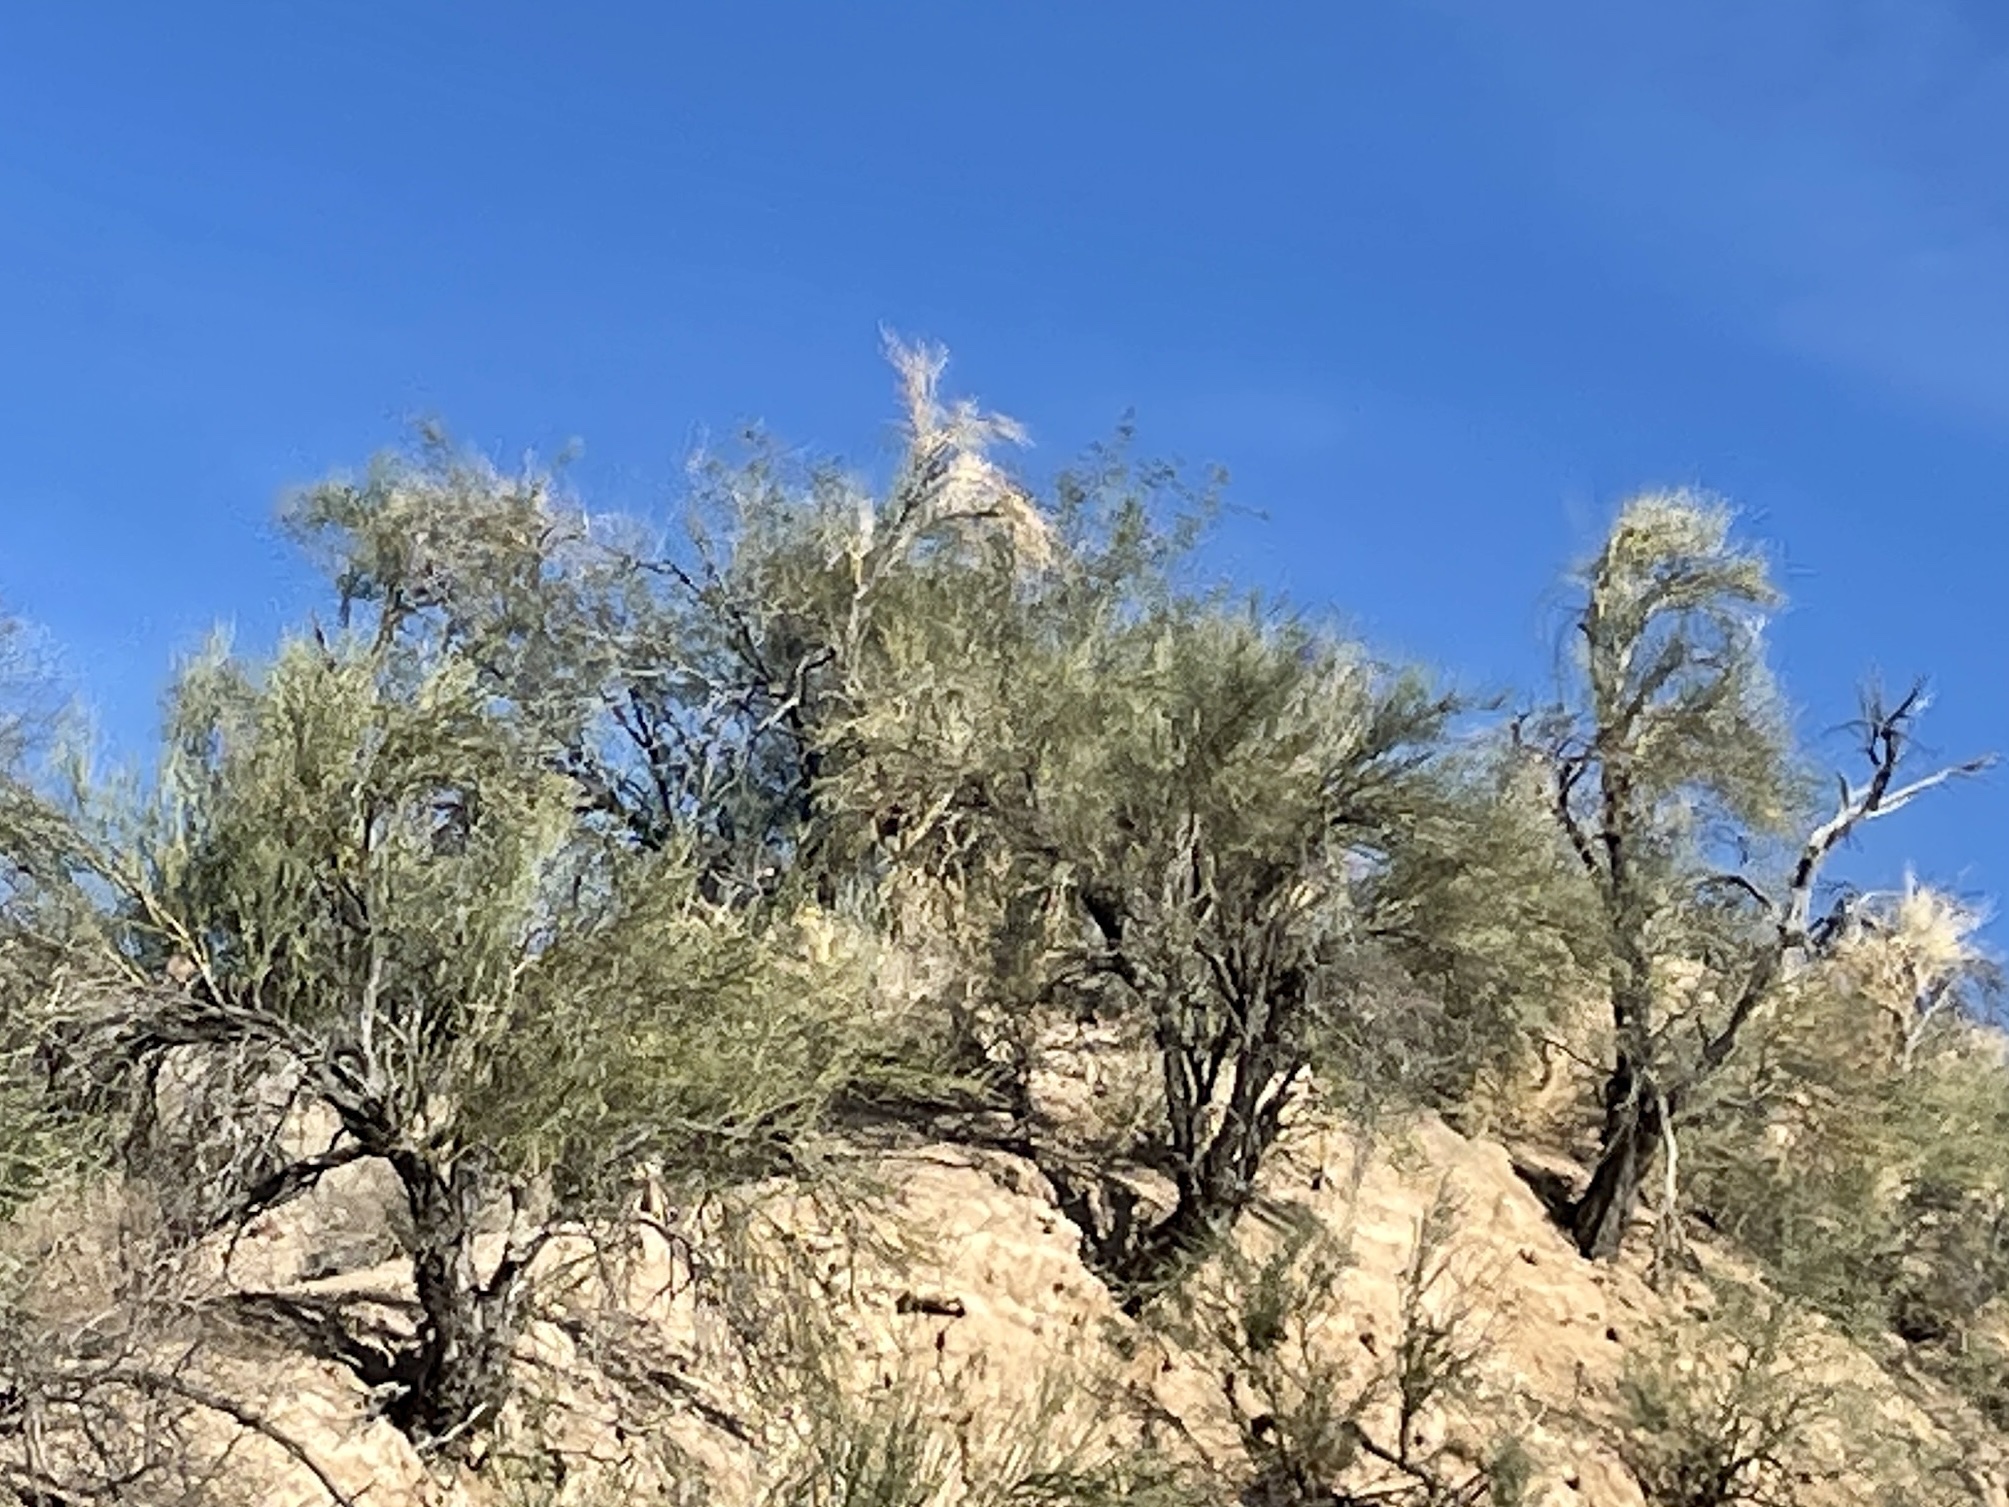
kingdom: Plantae
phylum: Tracheophyta
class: Magnoliopsida
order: Celastrales
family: Celastraceae
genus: Canotia
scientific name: Canotia holacantha
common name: Crucifixion thorns
